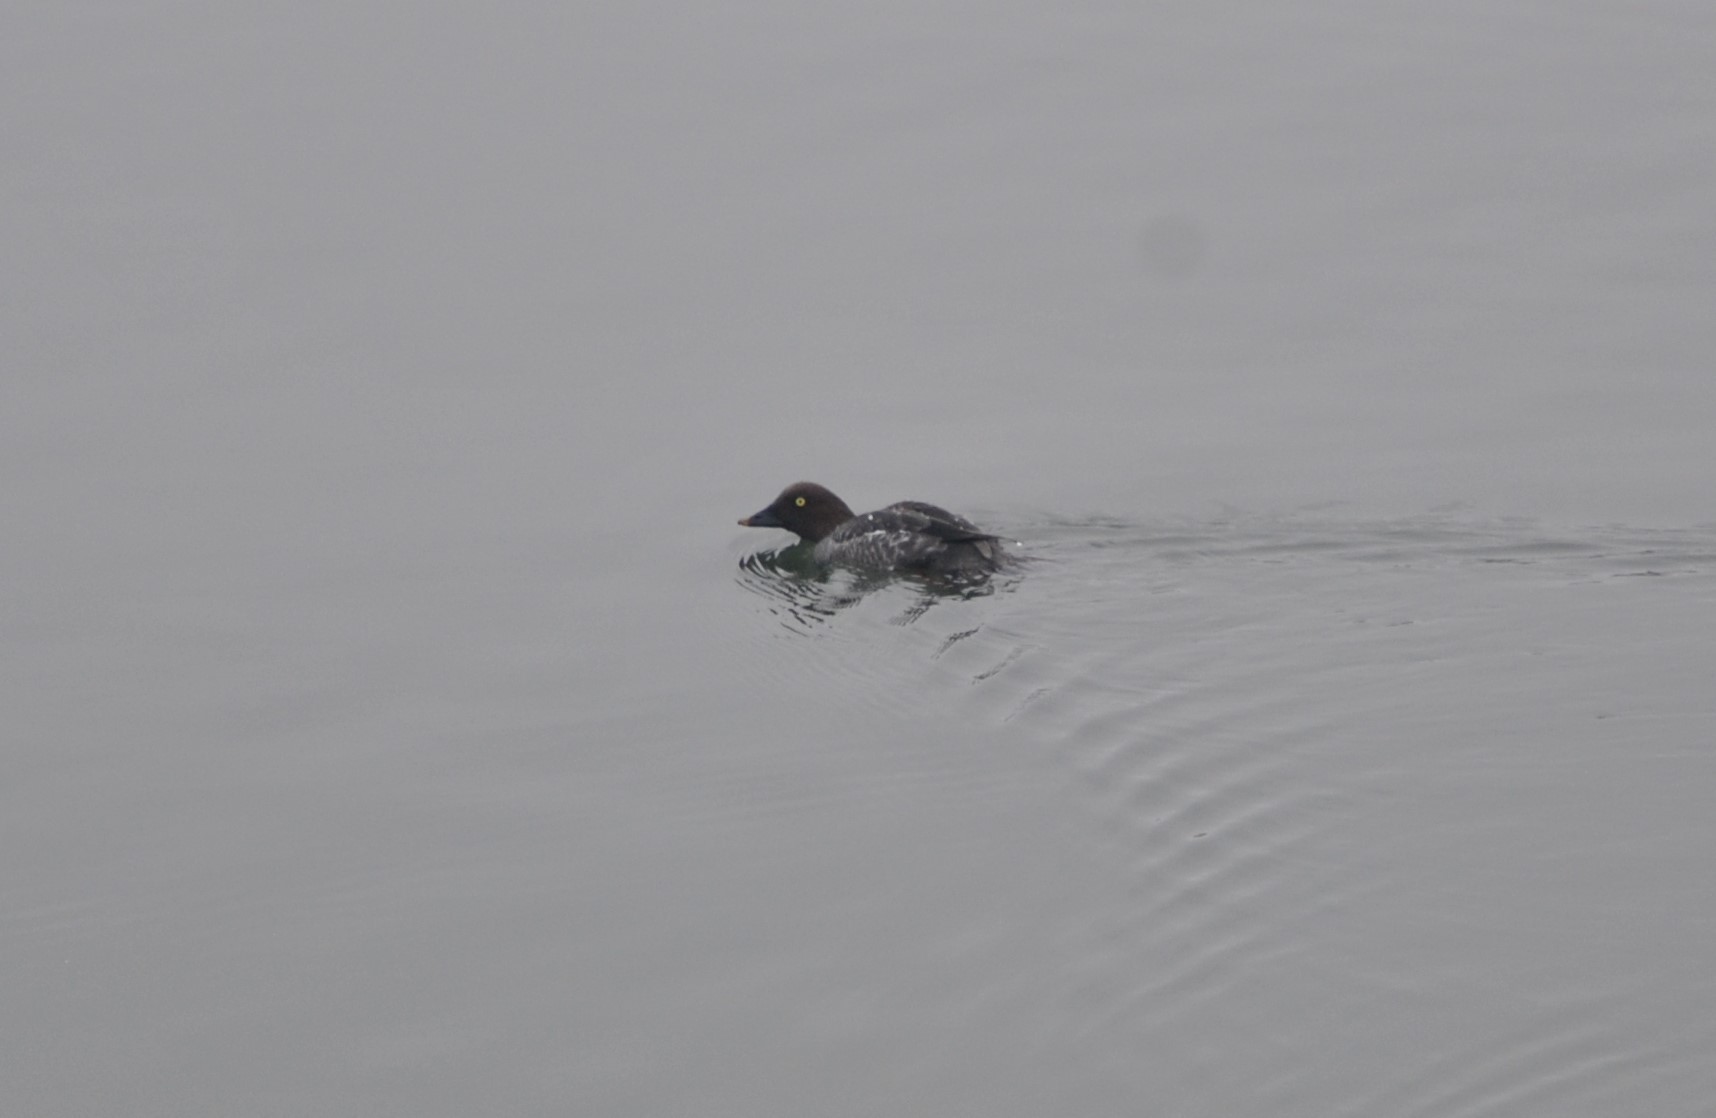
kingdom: Animalia
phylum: Chordata
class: Aves
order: Anseriformes
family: Anatidae
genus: Bucephala
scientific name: Bucephala clangula
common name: Common goldeneye
